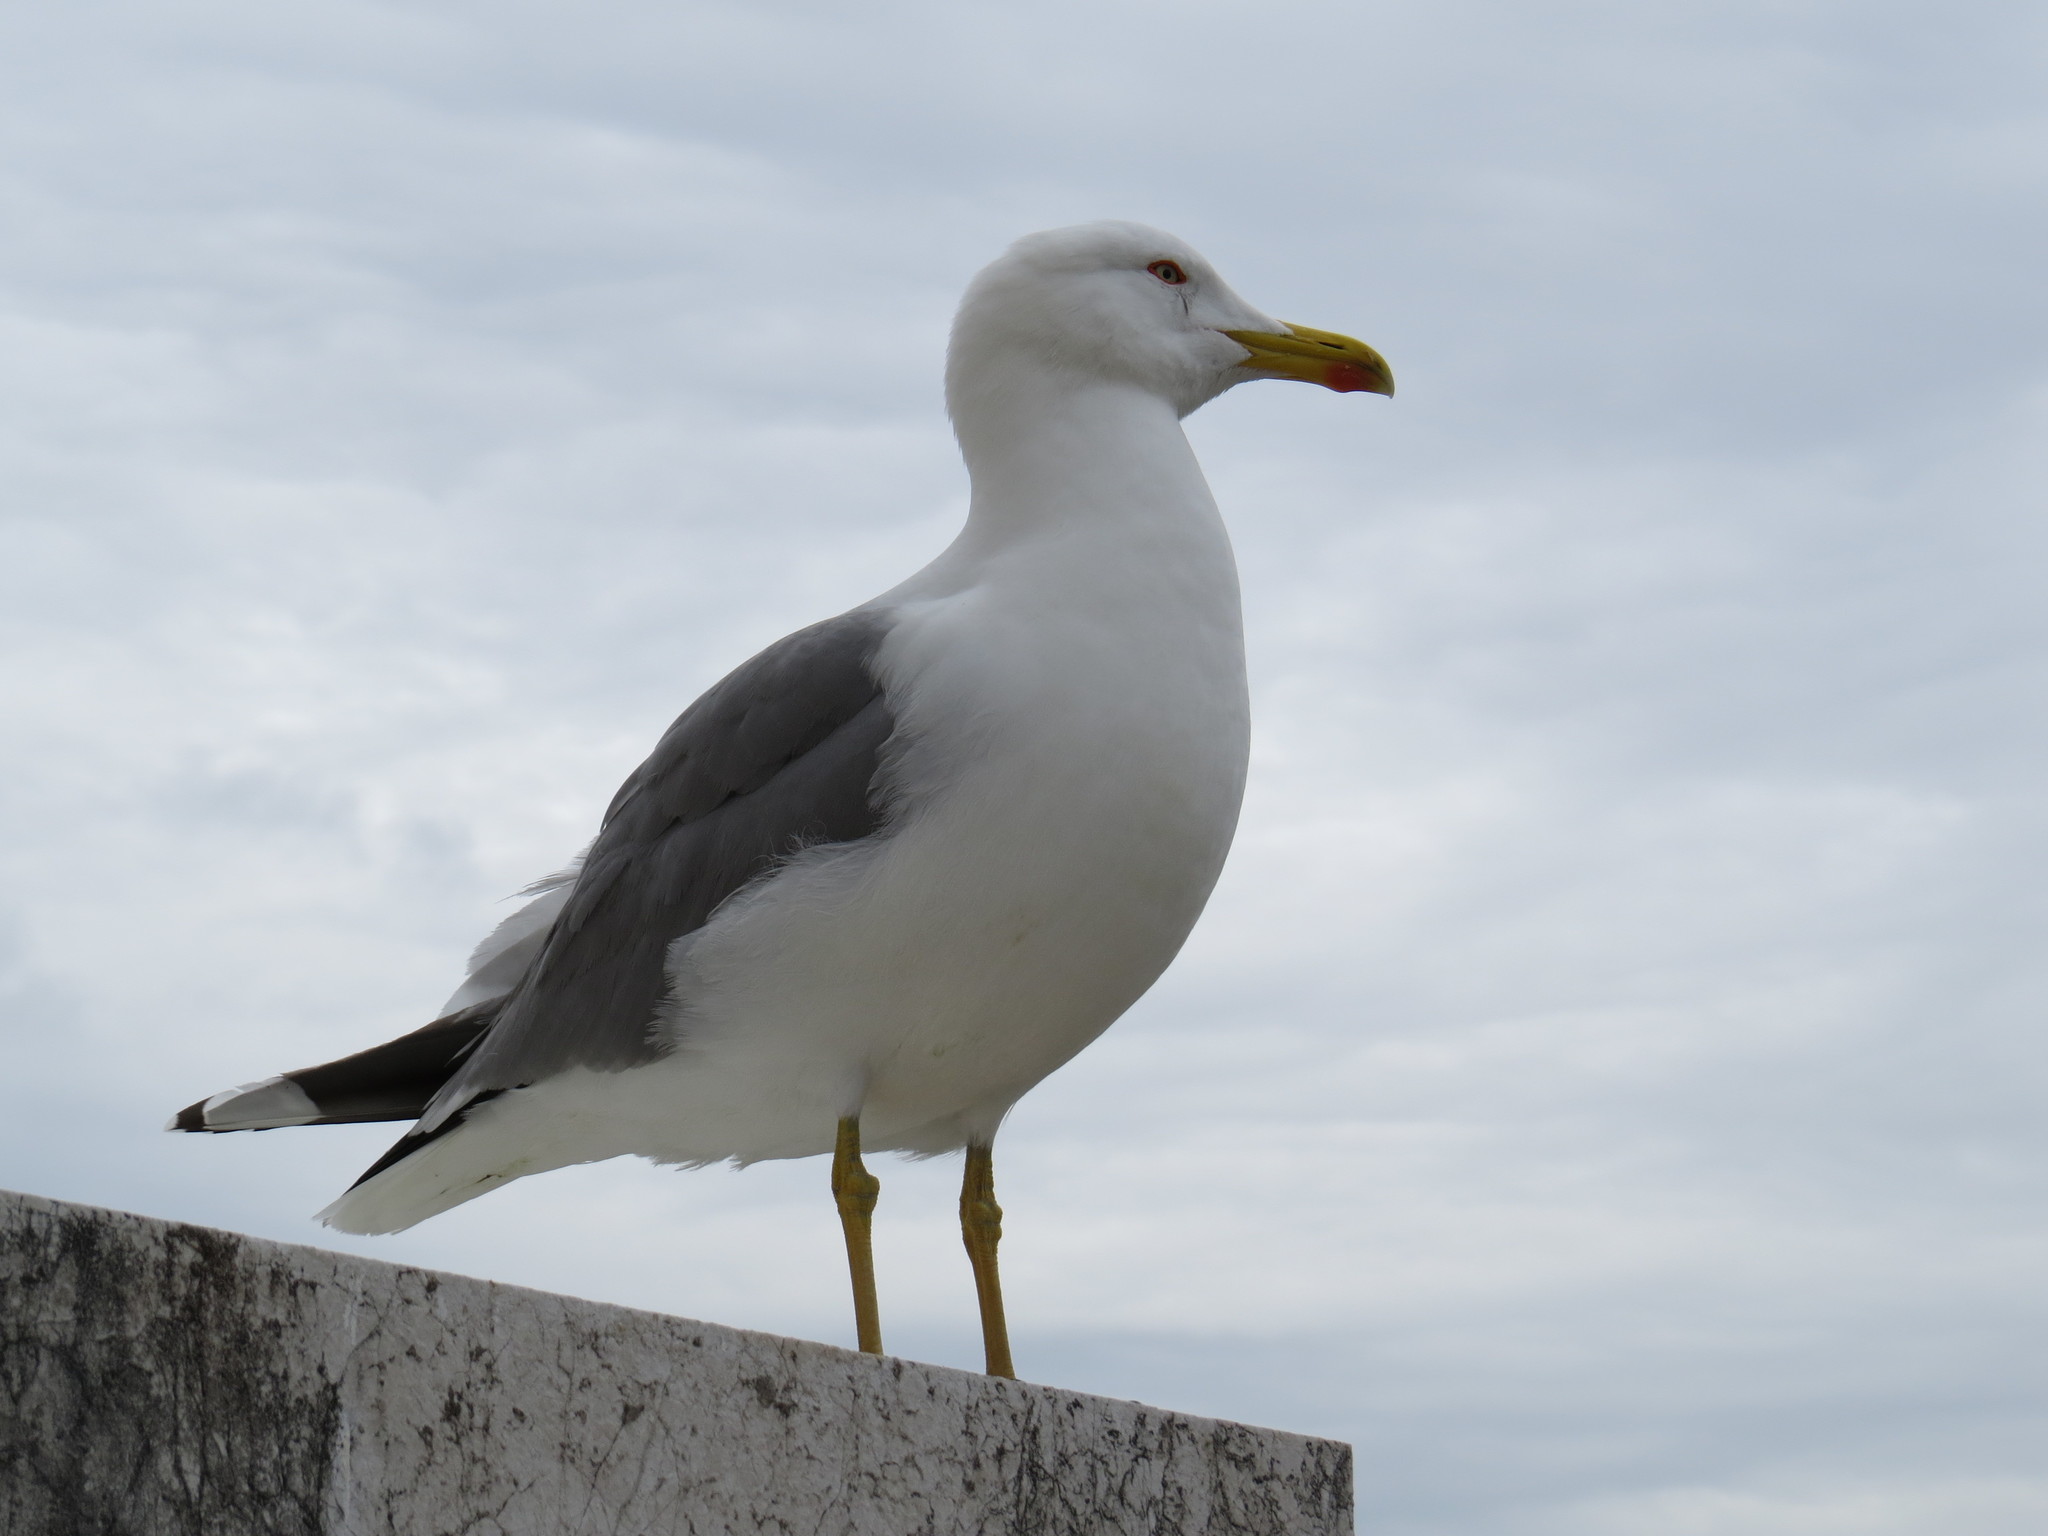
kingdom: Animalia
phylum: Chordata
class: Aves
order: Charadriiformes
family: Laridae
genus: Larus
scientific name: Larus michahellis
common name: Yellow-legged gull
